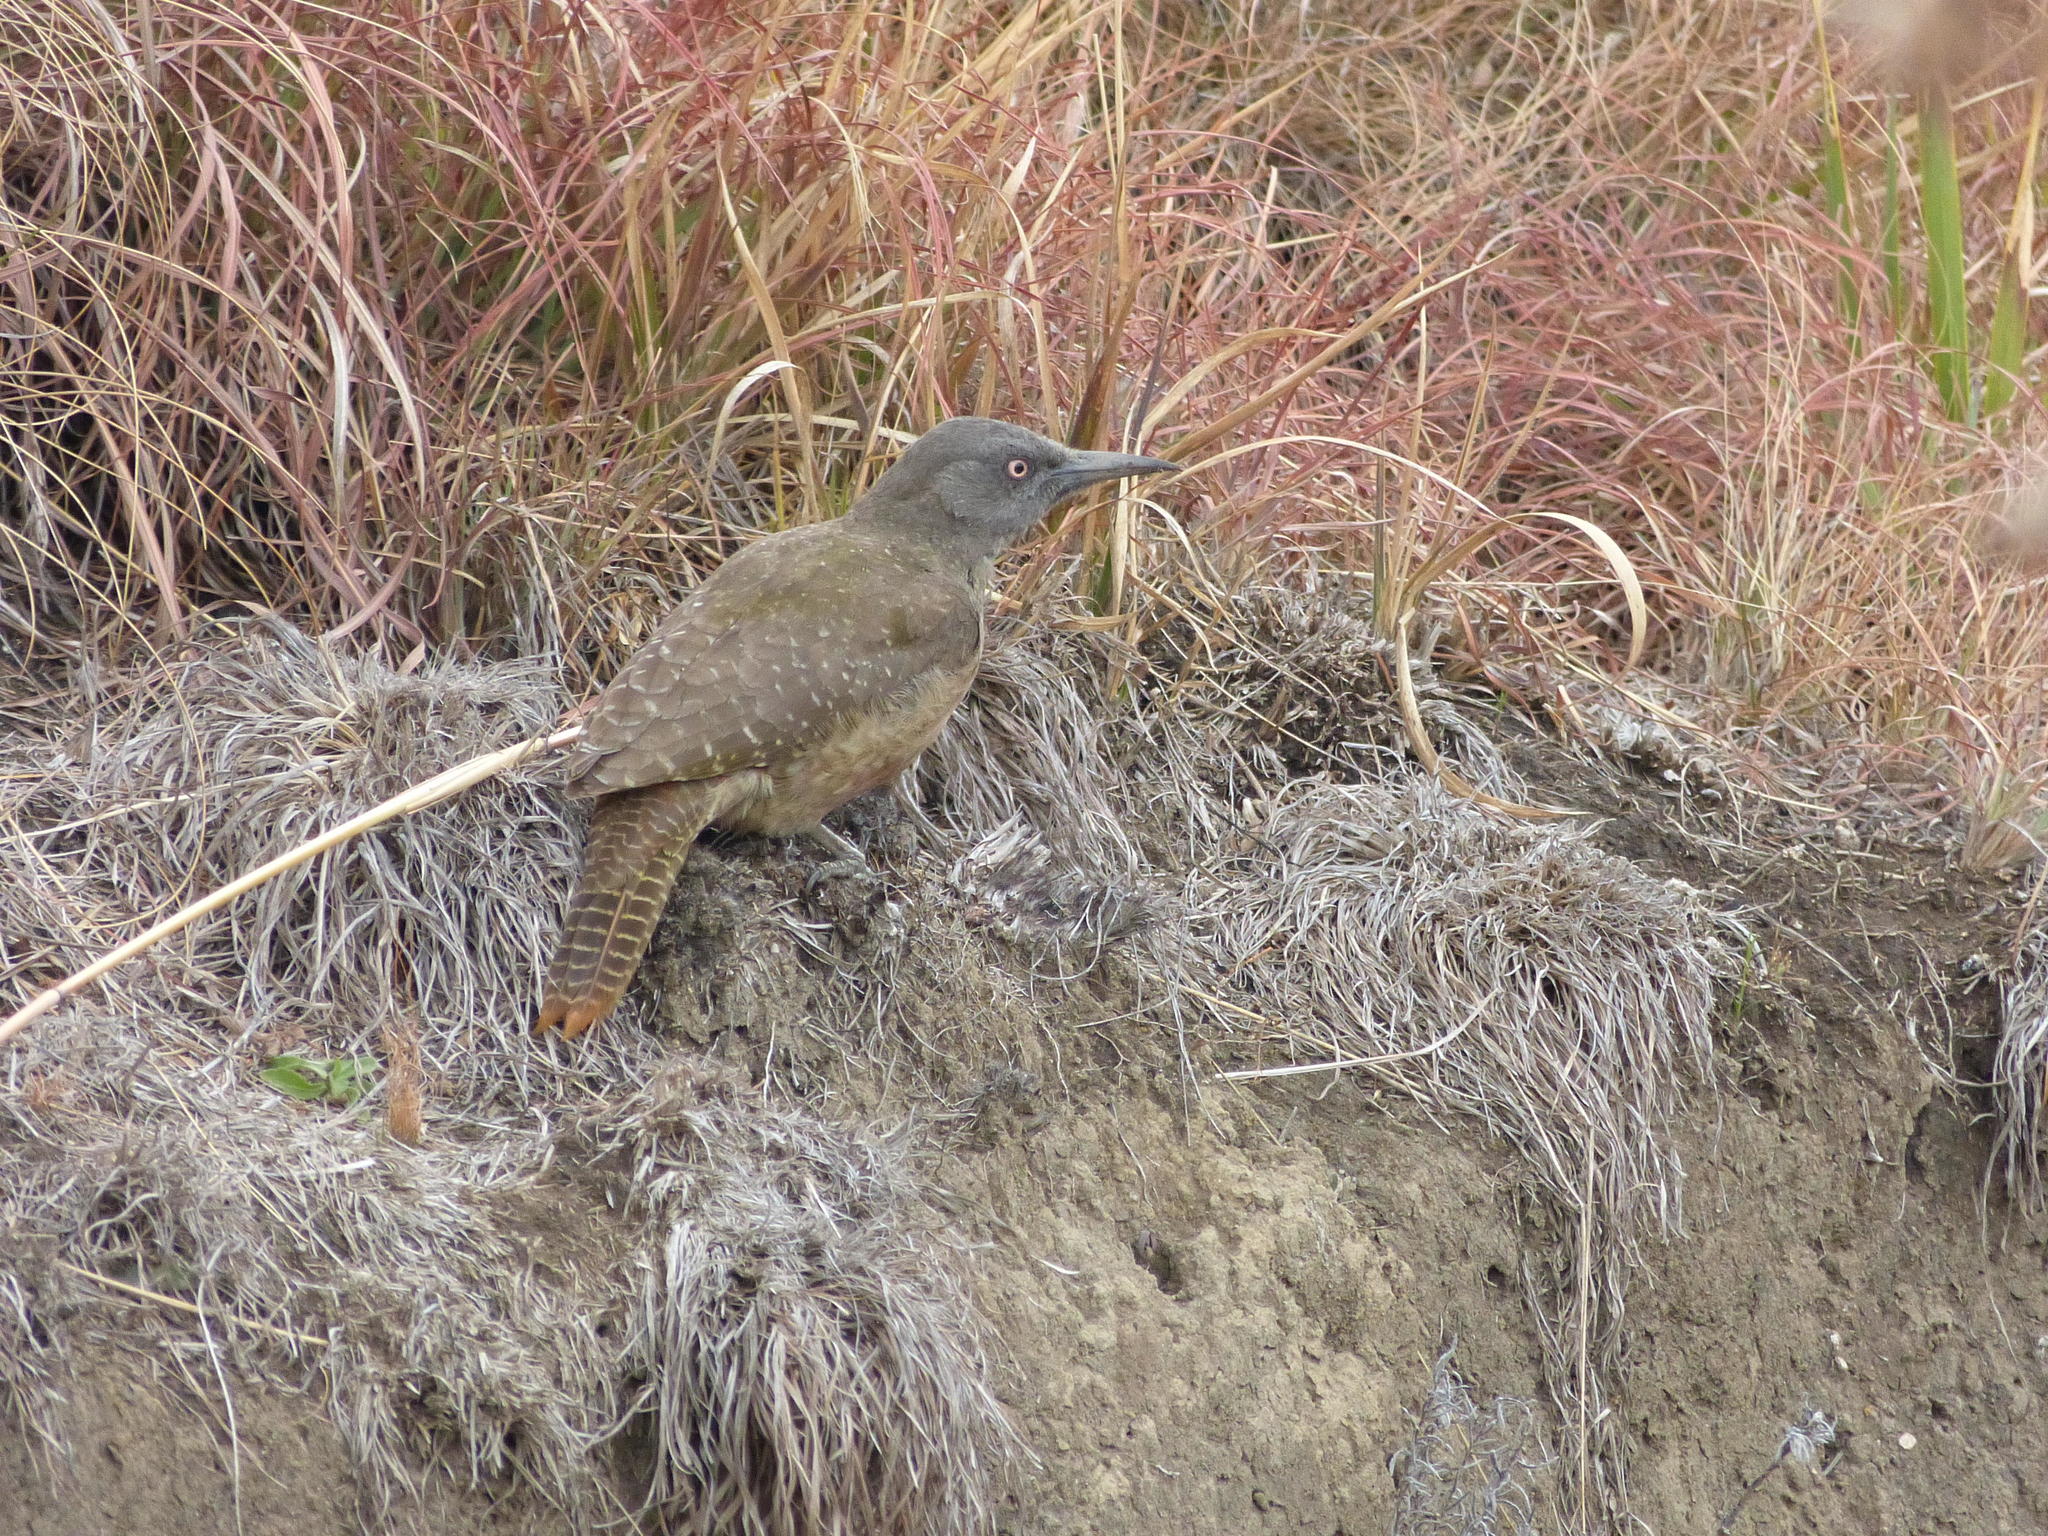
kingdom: Animalia
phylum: Chordata
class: Aves
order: Piciformes
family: Picidae
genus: Geocolaptes
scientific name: Geocolaptes olivaceus
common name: Ground woodpecker
